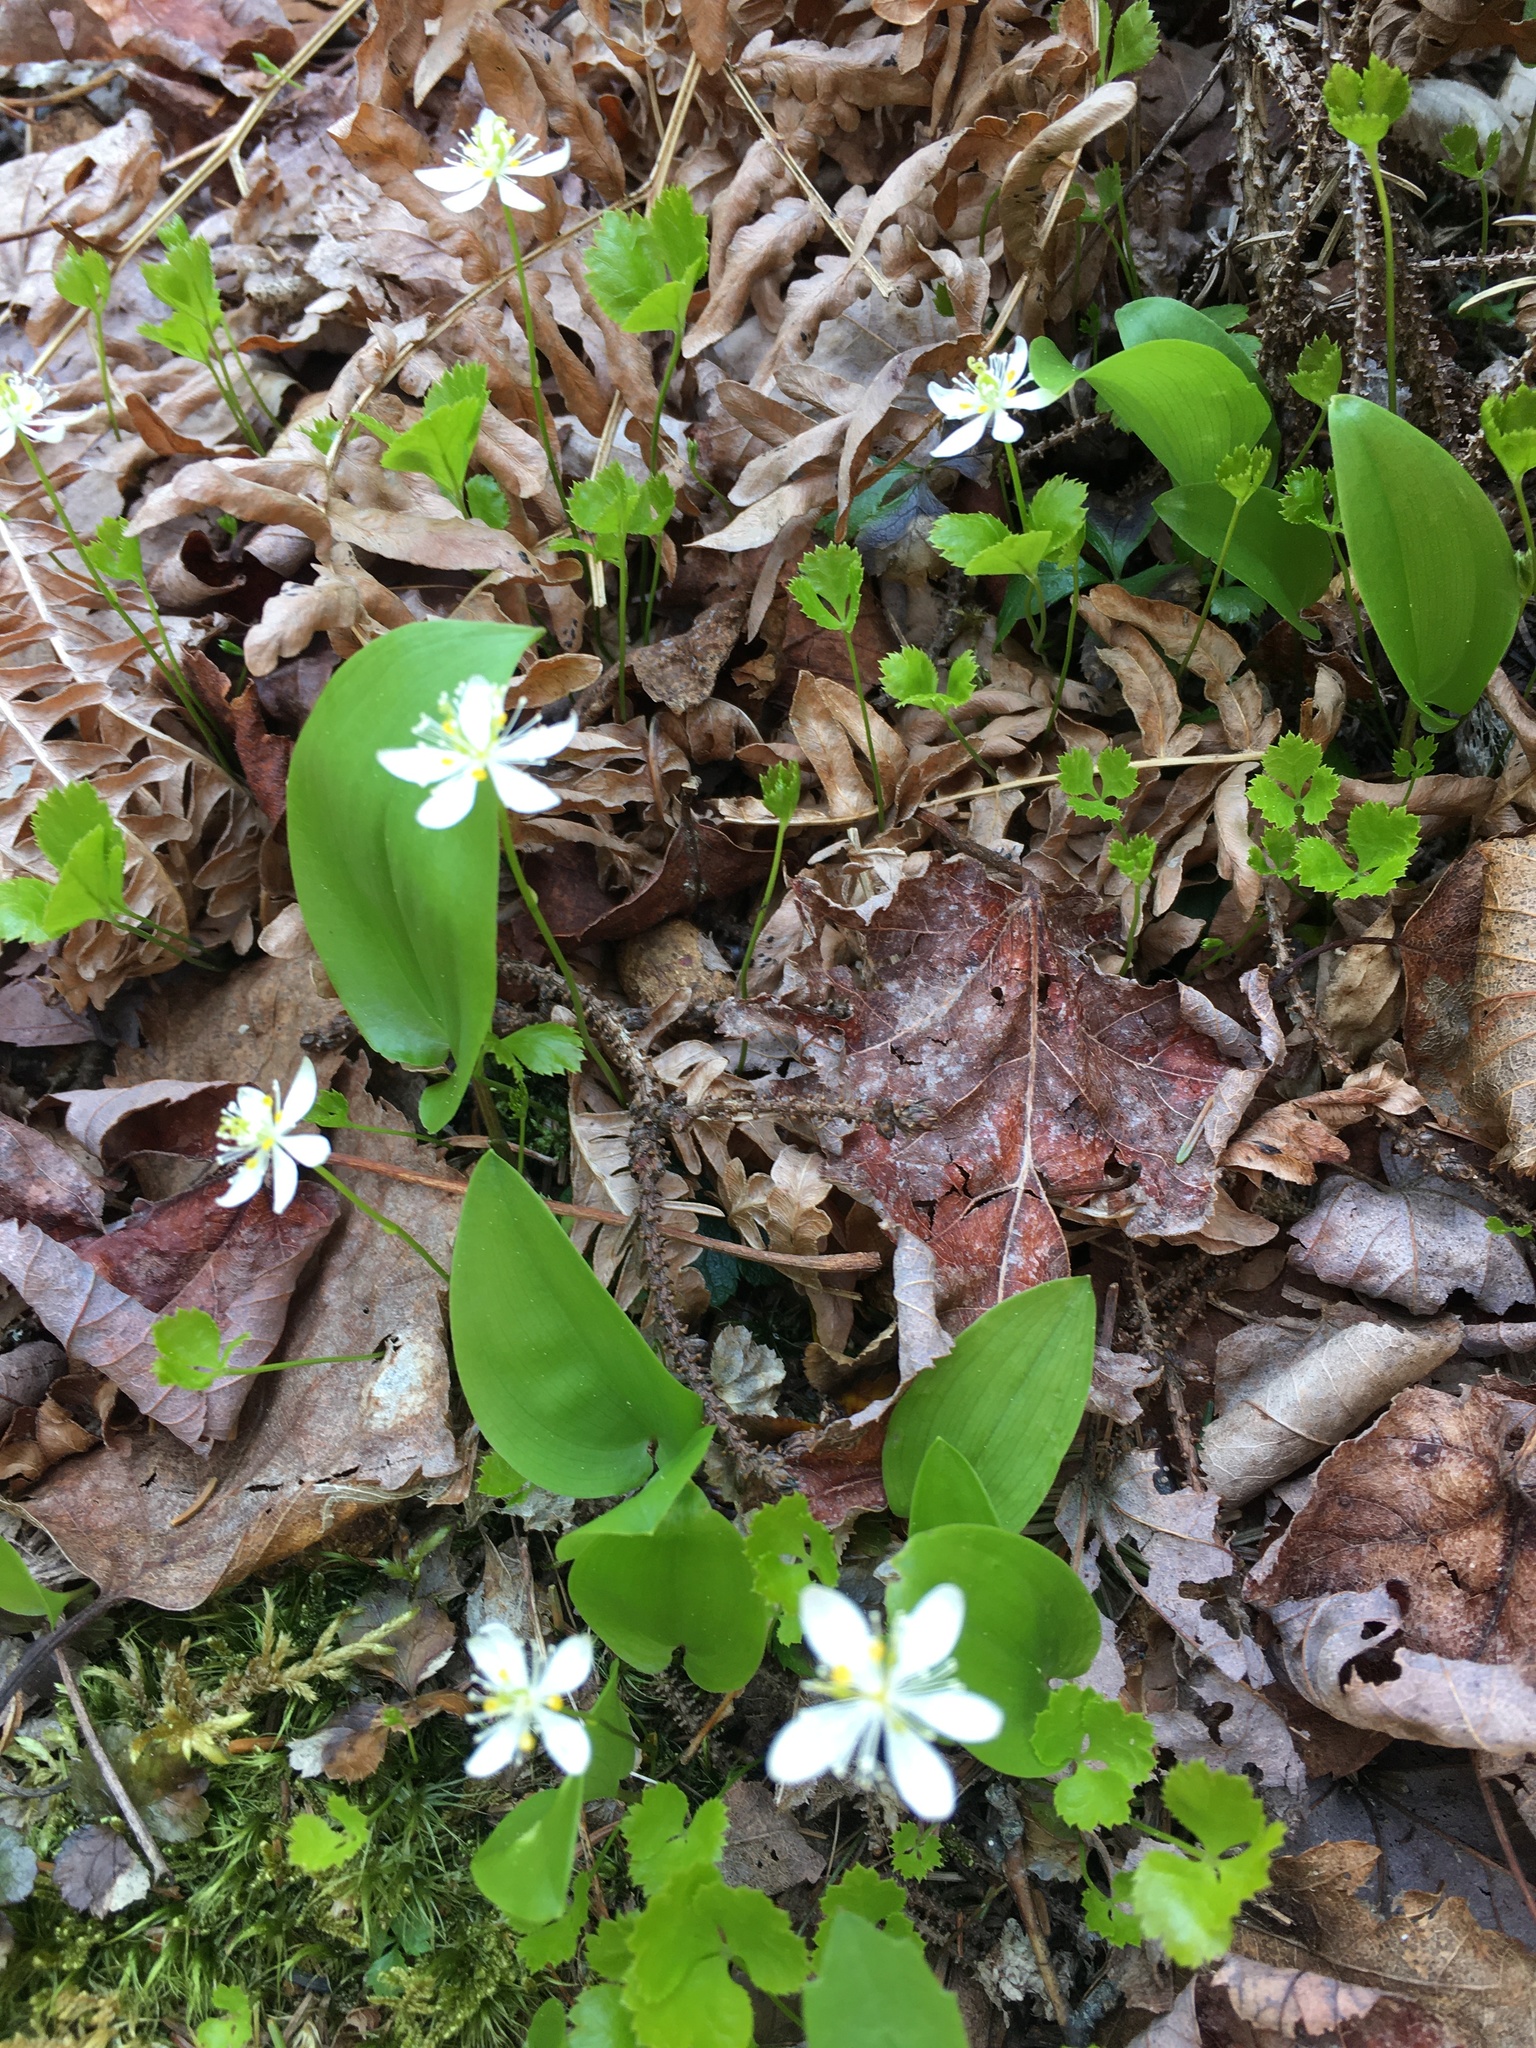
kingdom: Plantae
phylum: Tracheophyta
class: Magnoliopsida
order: Ranunculales
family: Ranunculaceae
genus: Coptis
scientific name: Coptis trifolia
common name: Canker-root
